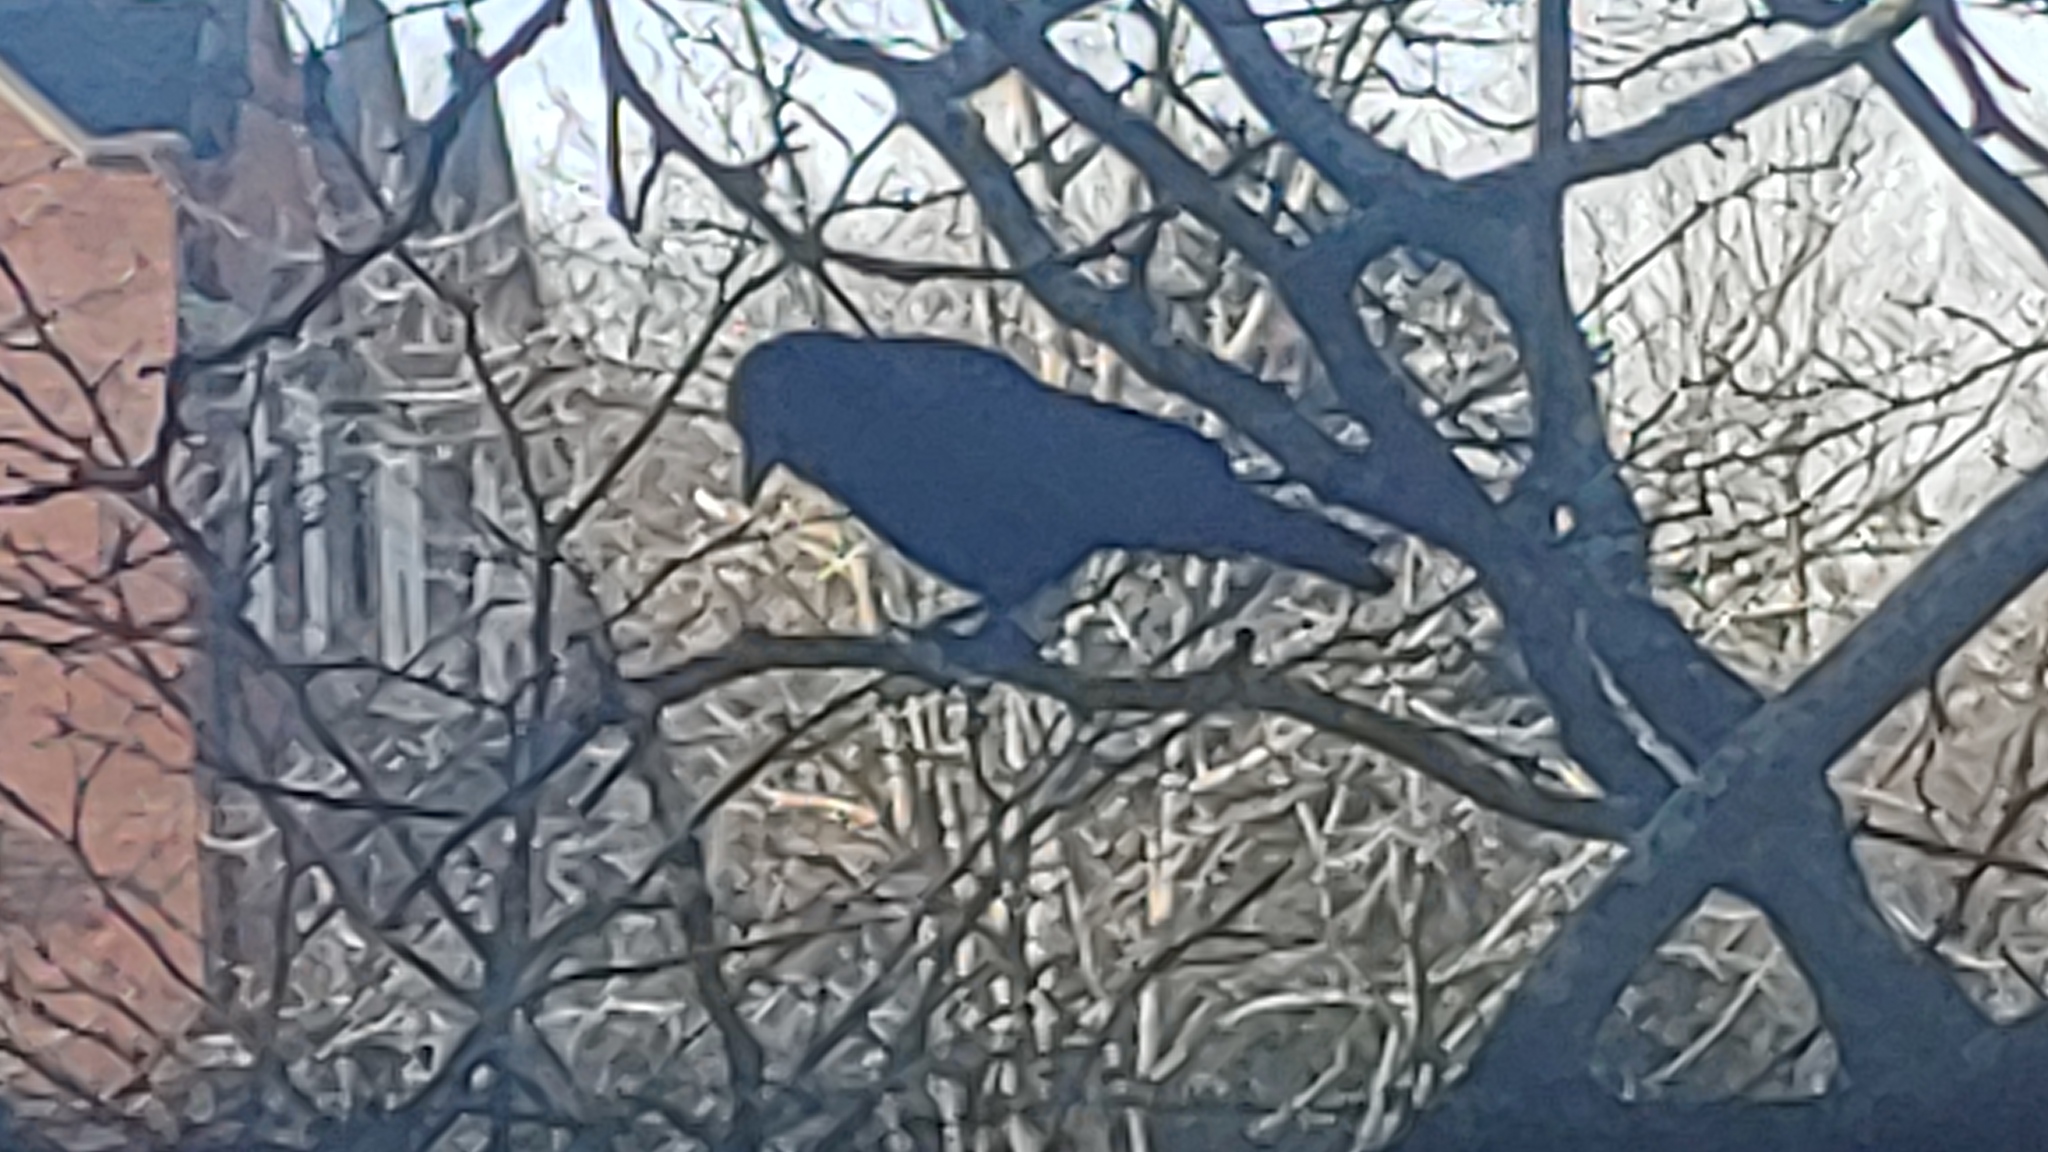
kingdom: Animalia
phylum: Chordata
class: Aves
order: Passeriformes
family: Corvidae
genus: Corvus
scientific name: Corvus brachyrhynchos
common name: American crow
